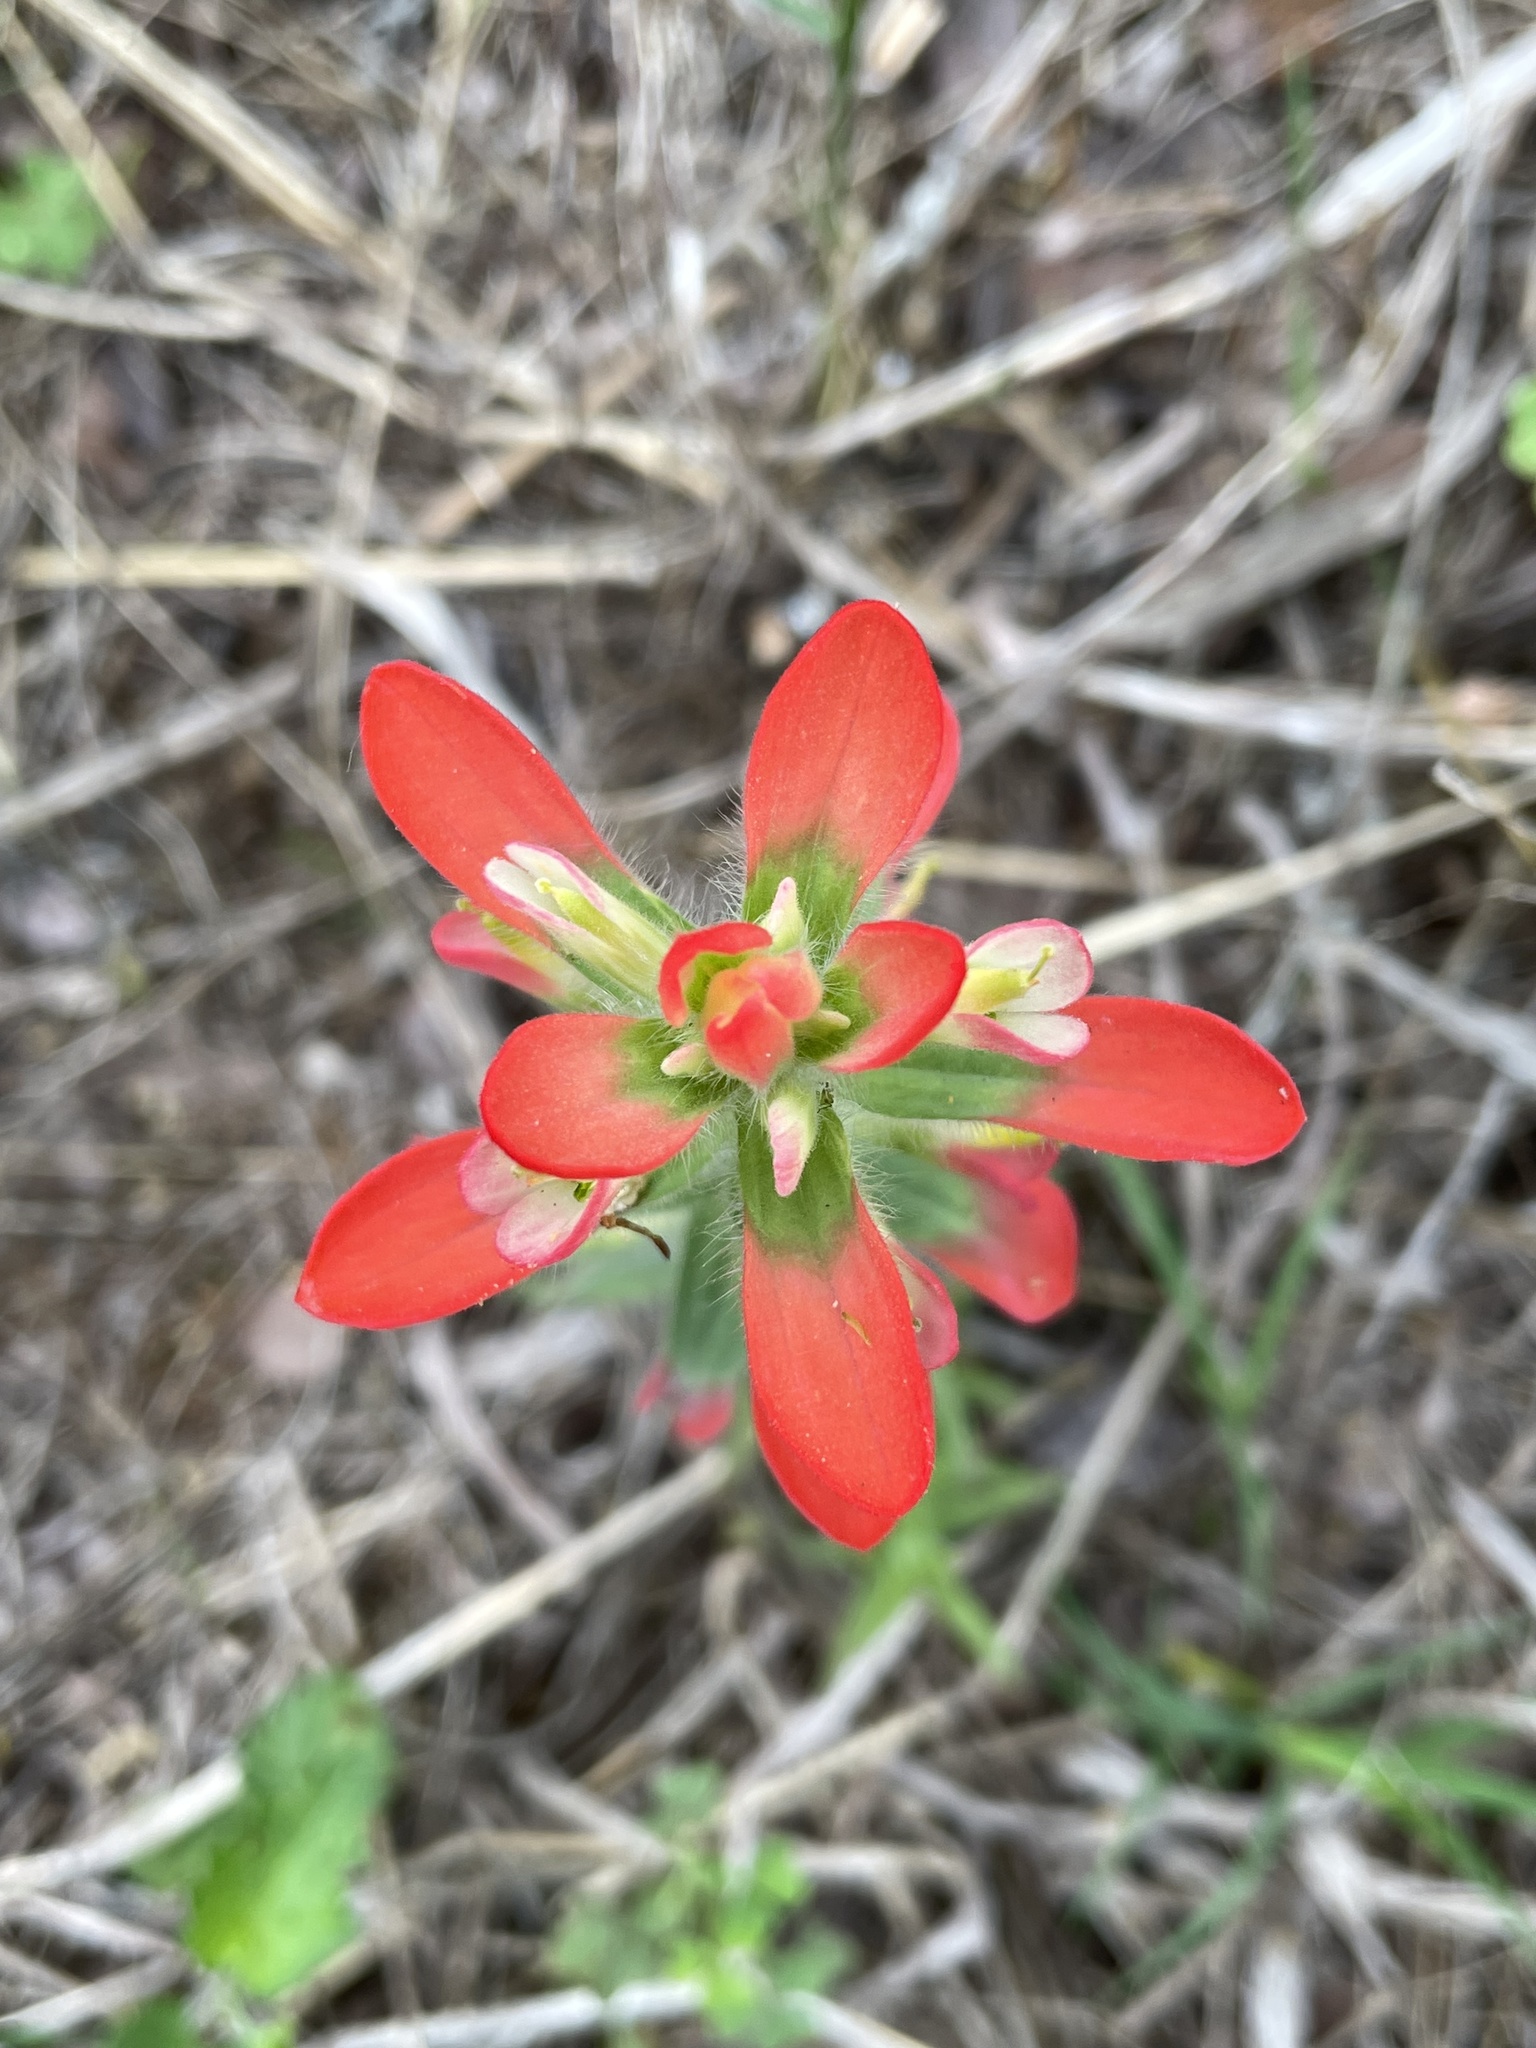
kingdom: Plantae
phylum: Tracheophyta
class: Magnoliopsida
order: Lamiales
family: Orobanchaceae
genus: Castilleja
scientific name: Castilleja indivisa
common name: Texas paintbrush
